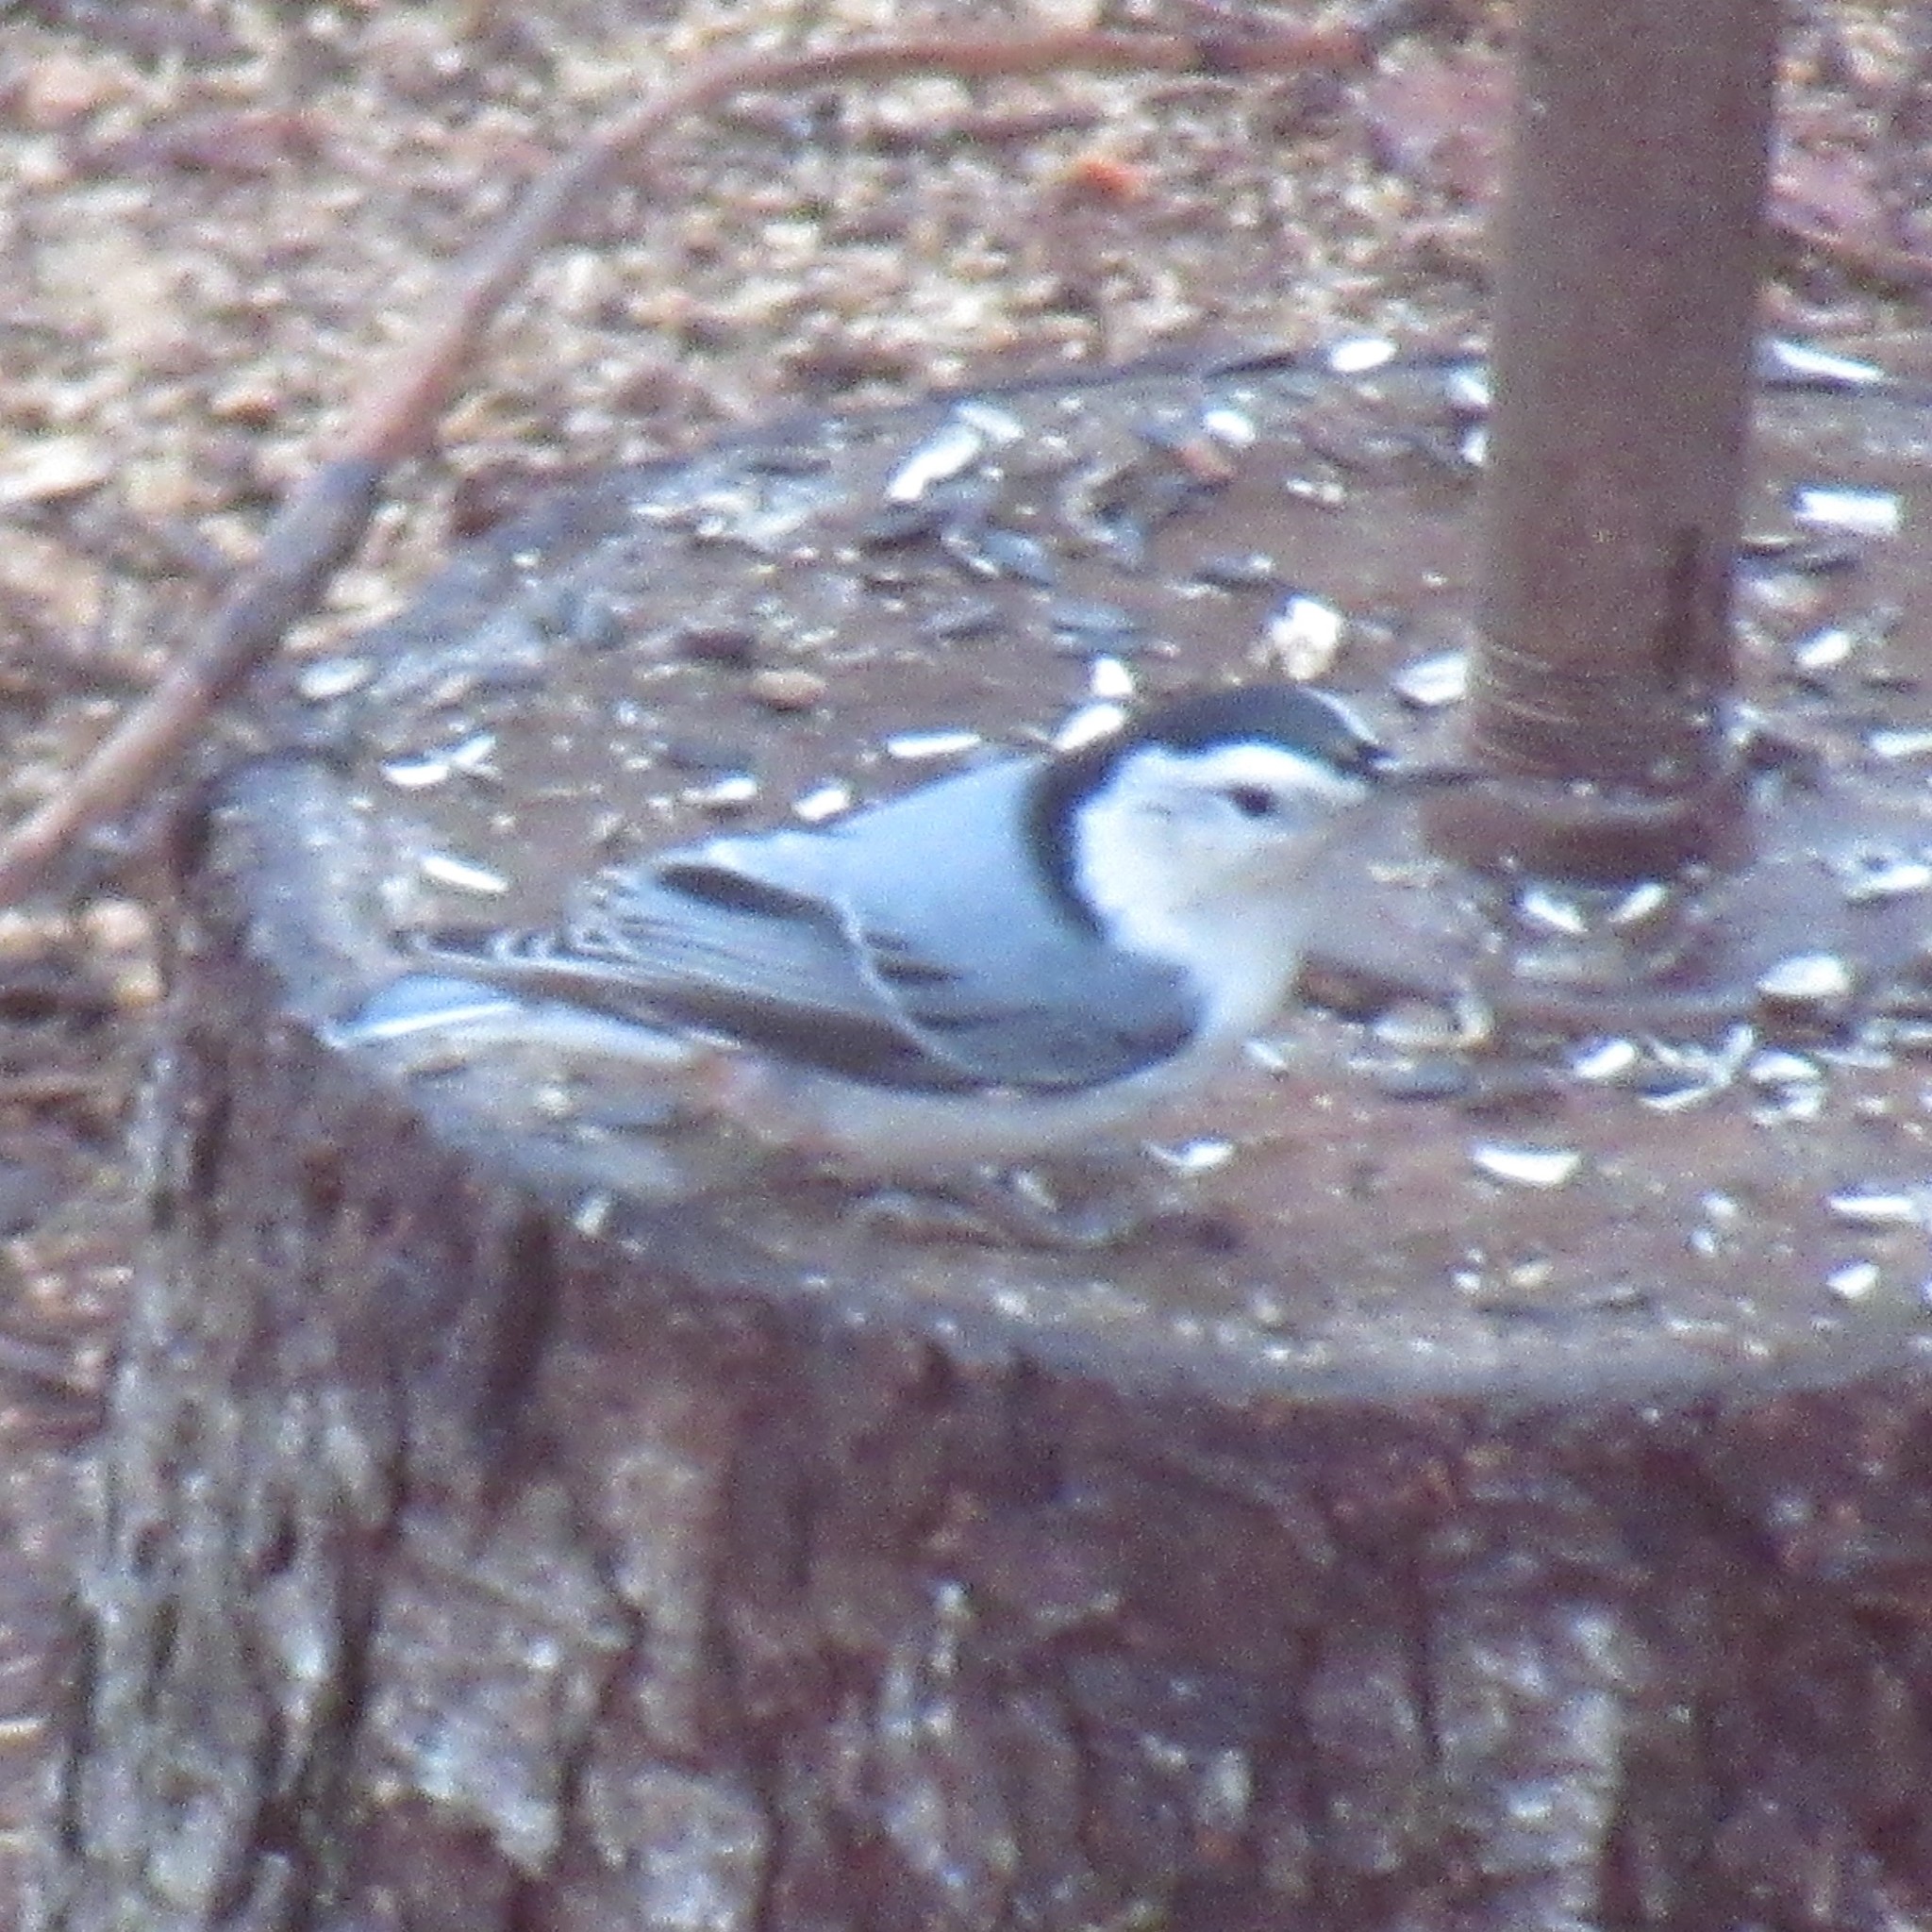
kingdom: Animalia
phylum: Chordata
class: Aves
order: Passeriformes
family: Sittidae
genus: Sitta
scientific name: Sitta carolinensis
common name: White-breasted nuthatch
